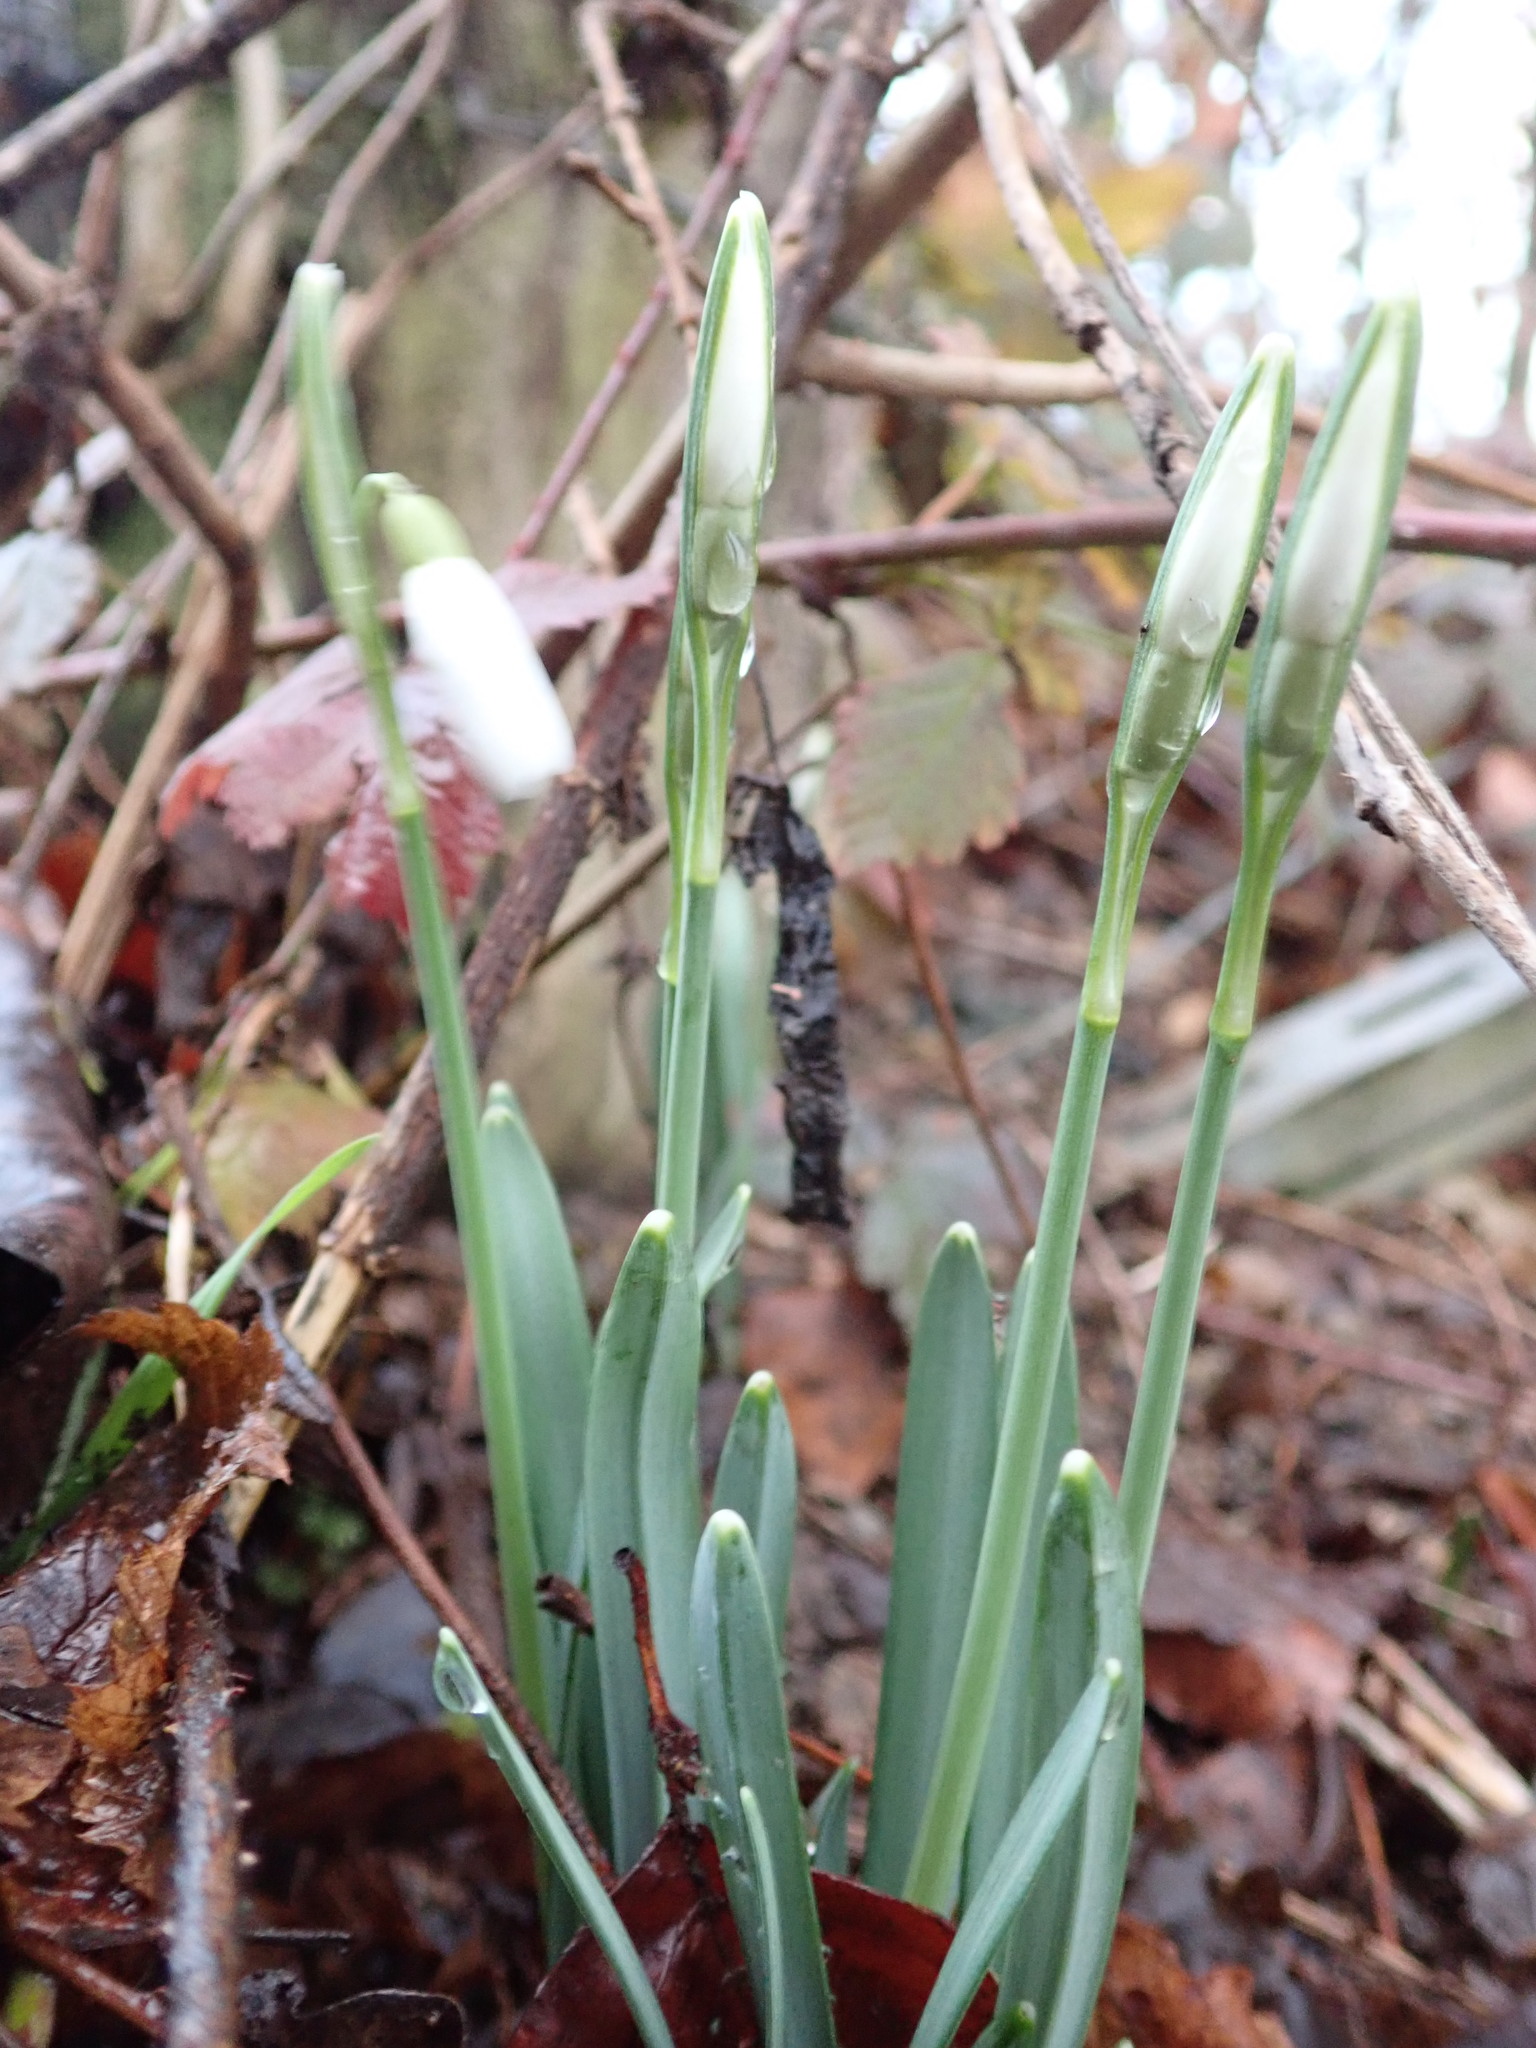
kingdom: Plantae
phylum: Tracheophyta
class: Liliopsida
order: Asparagales
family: Amaryllidaceae
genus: Galanthus
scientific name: Galanthus nivalis
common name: Snowdrop
